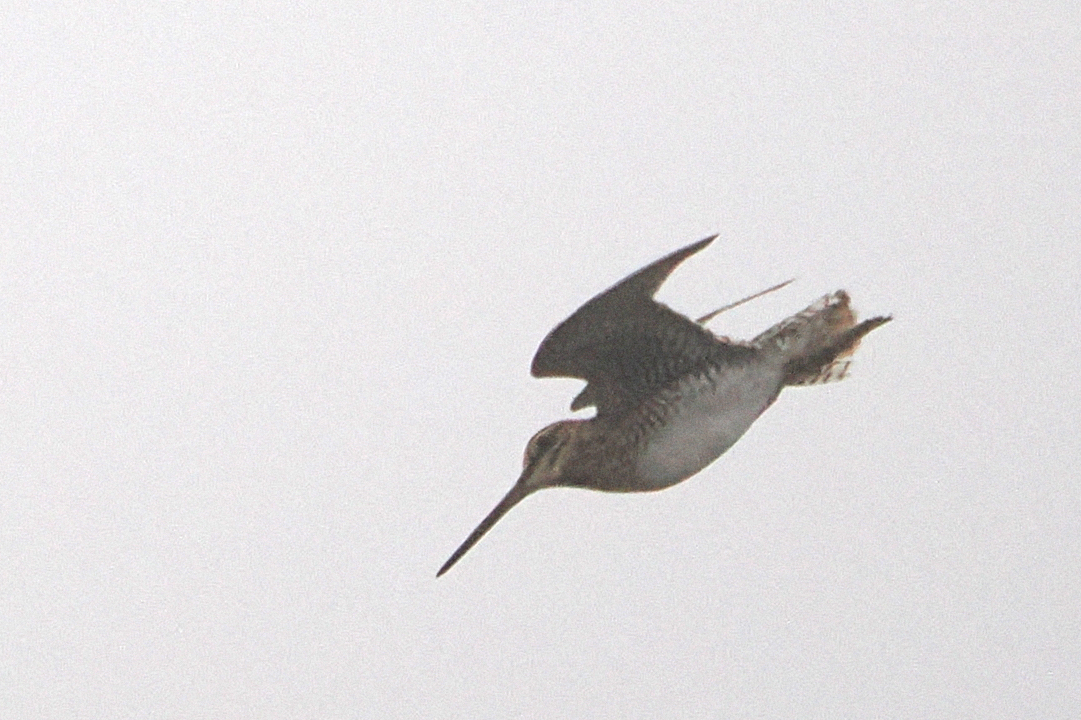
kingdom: Animalia
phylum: Chordata
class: Aves
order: Charadriiformes
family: Scolopacidae
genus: Gallinago
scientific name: Gallinago delicata
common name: Wilson's snipe
